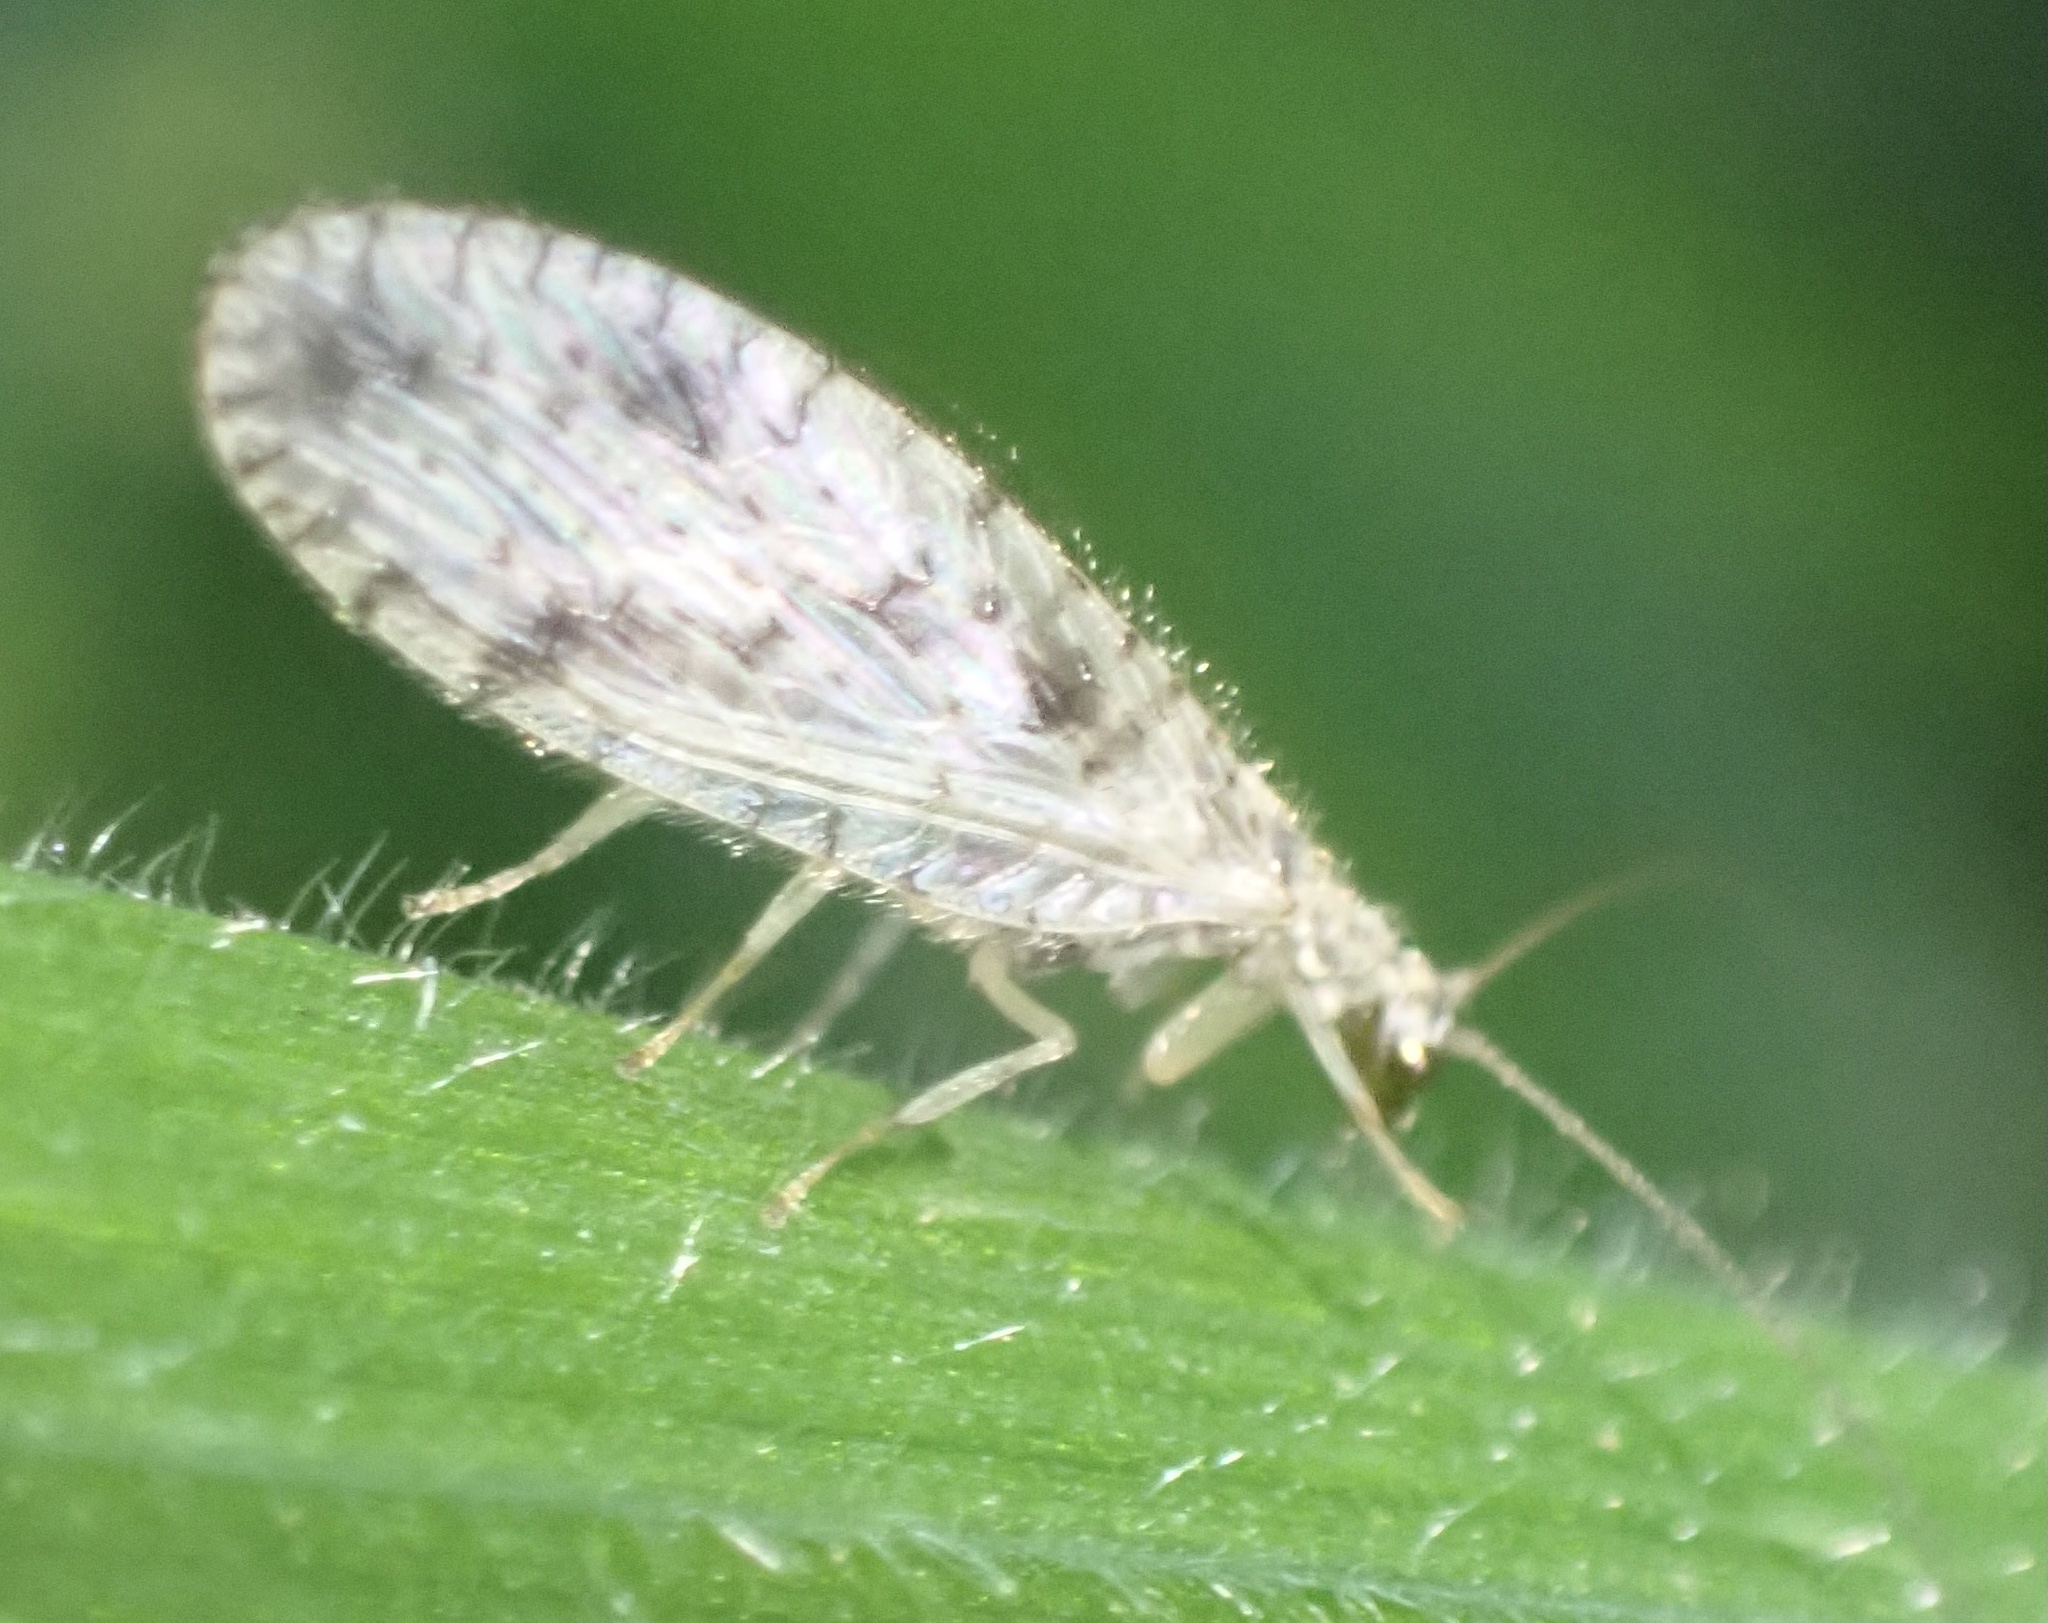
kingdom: Animalia
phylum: Arthropoda
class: Insecta
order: Neuroptera
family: Hemerobiidae
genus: Micromus
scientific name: Micromus variegatus
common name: Brown lacewing
